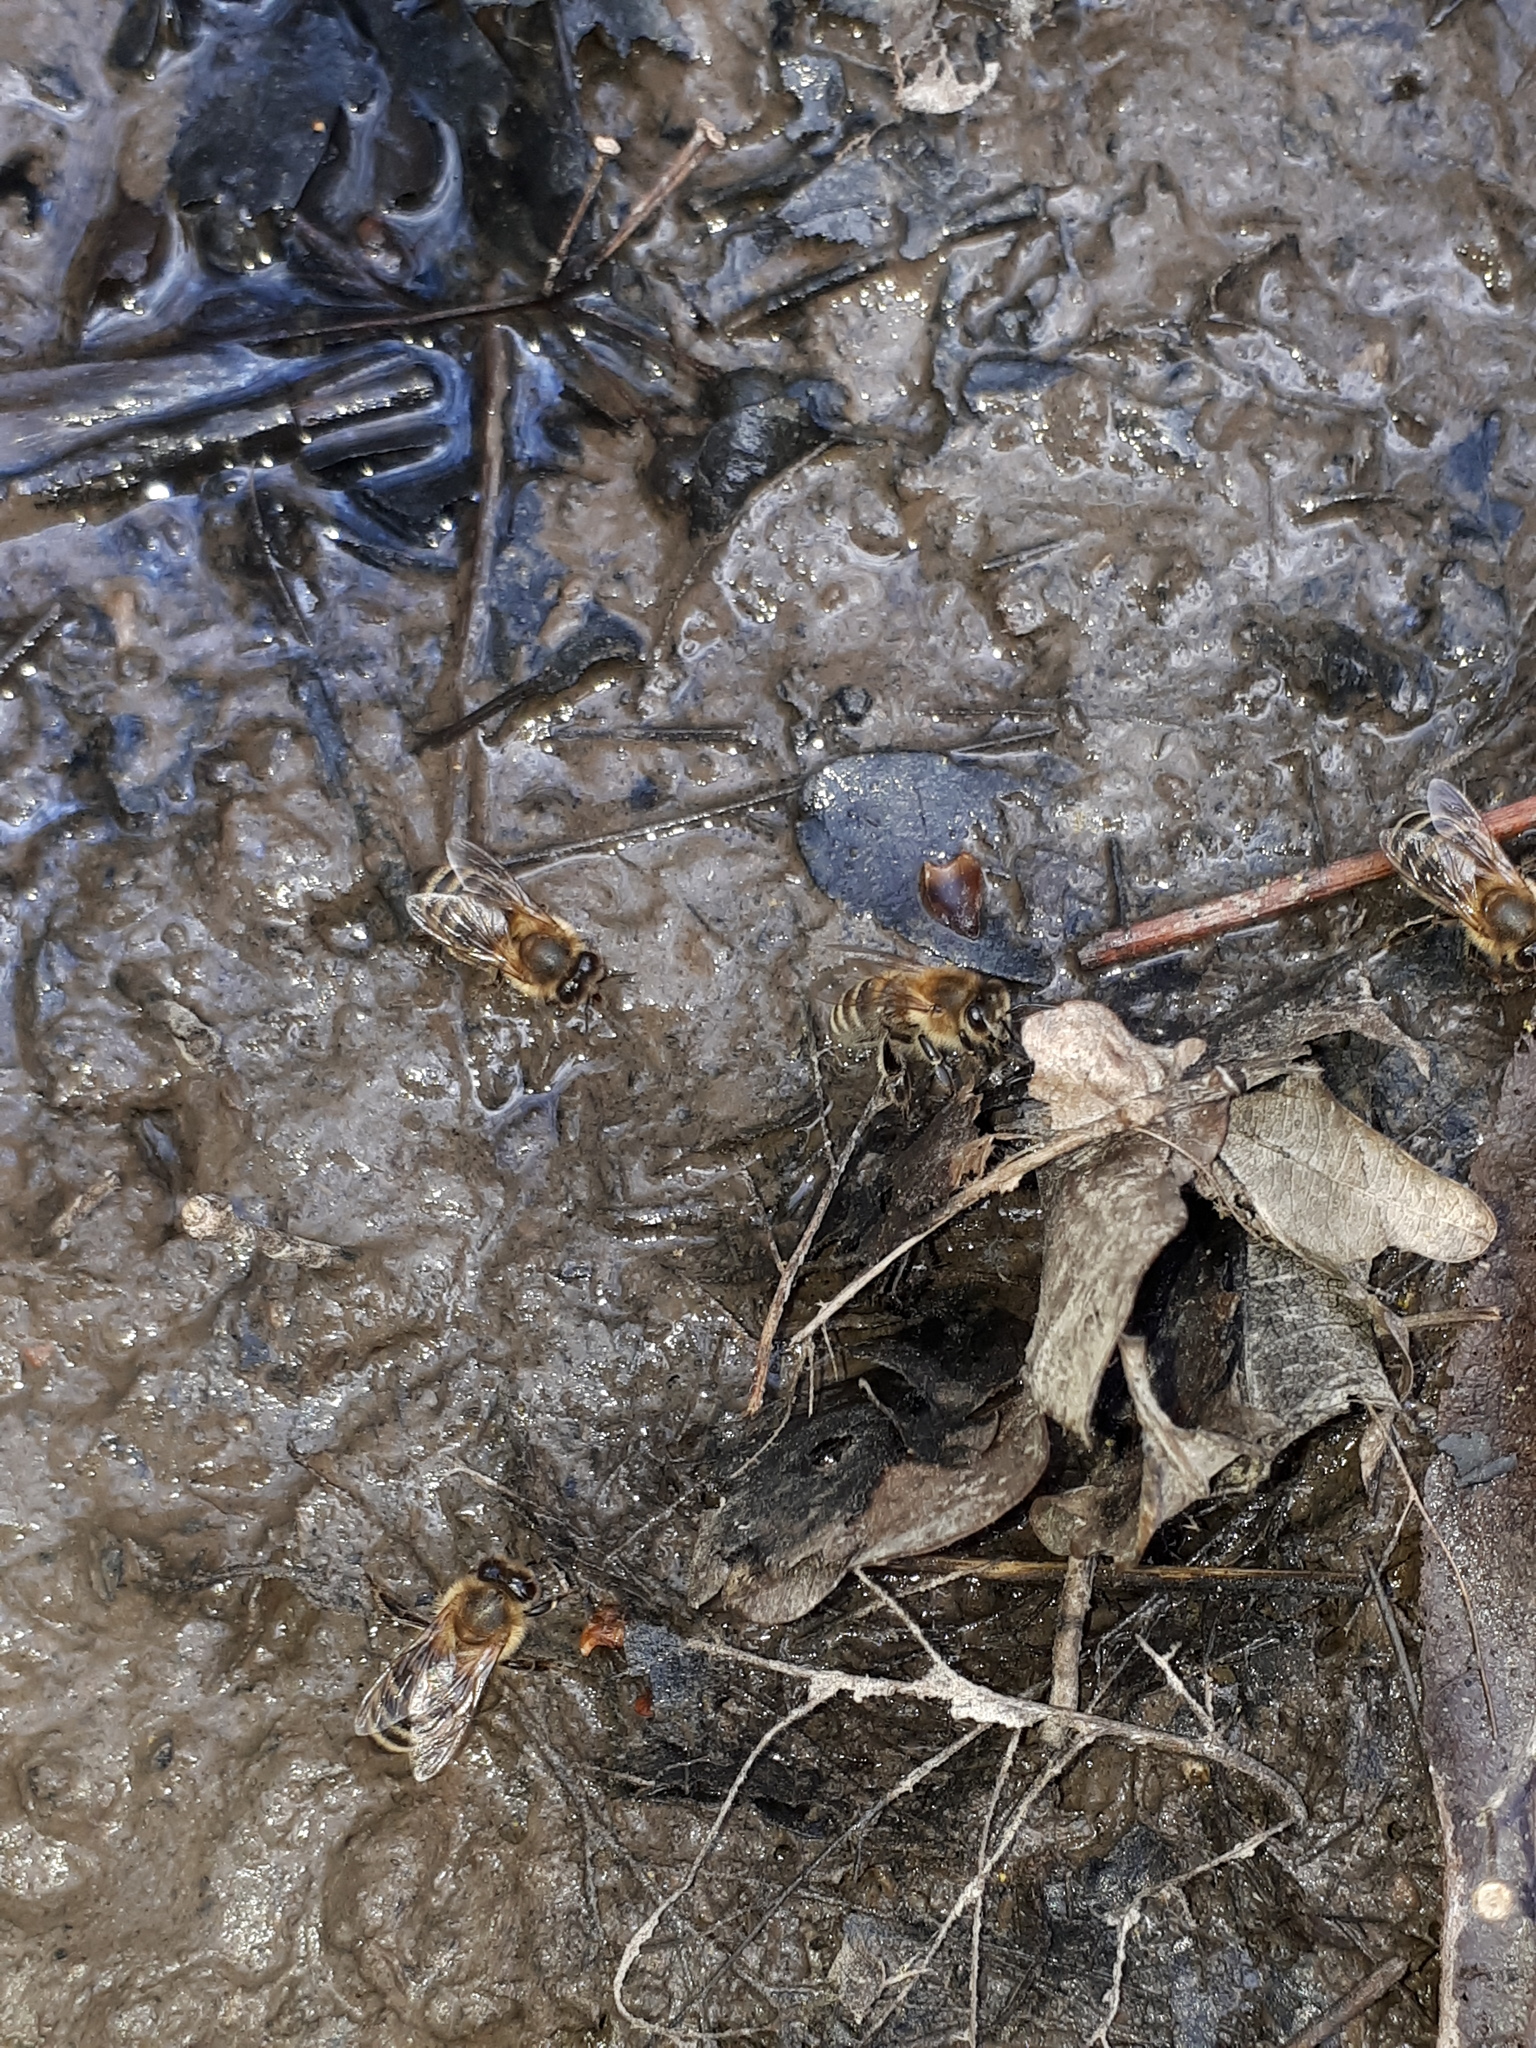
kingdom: Animalia
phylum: Arthropoda
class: Insecta
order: Hymenoptera
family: Apidae
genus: Apis
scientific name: Apis mellifera
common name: Honey bee
